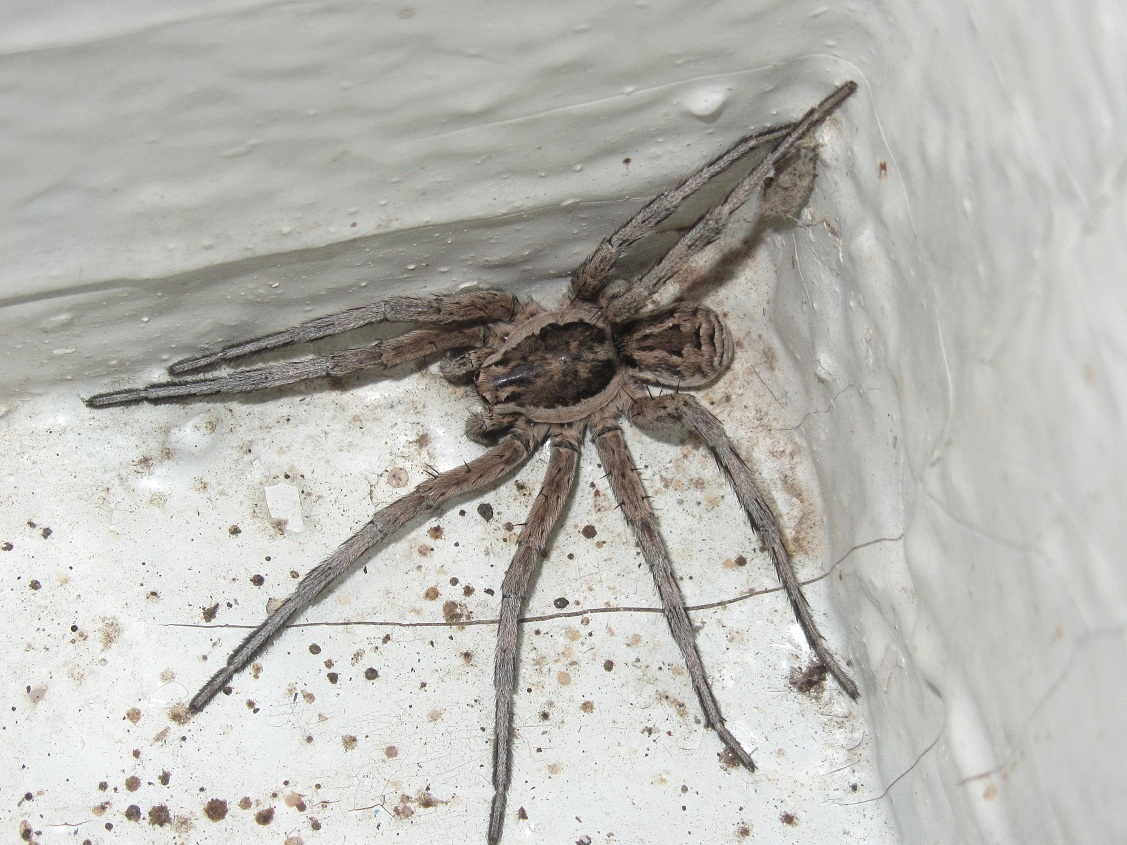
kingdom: Animalia
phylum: Arthropoda
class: Arachnida
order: Araneae
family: Lycosidae
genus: Lycosa
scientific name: Lycosa praegrandis
